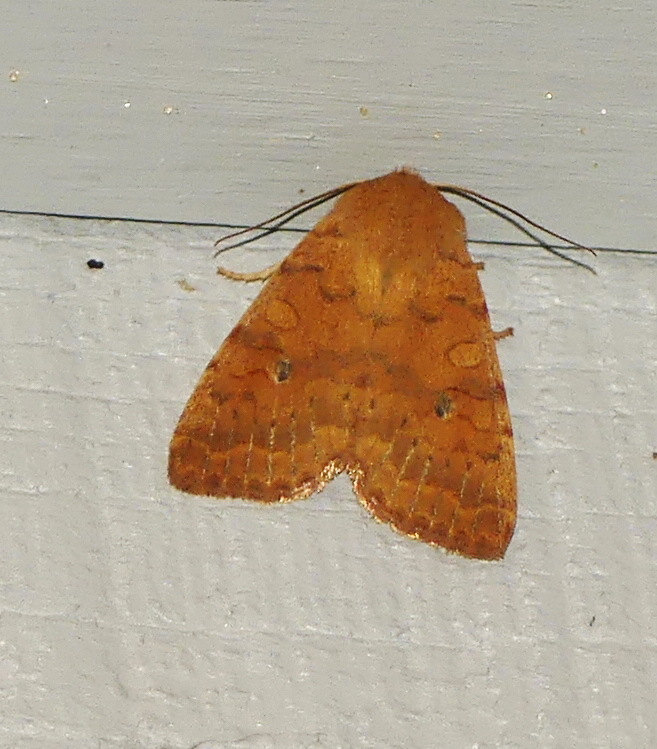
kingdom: Animalia
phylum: Arthropoda
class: Insecta
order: Lepidoptera
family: Noctuidae
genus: Agrochola
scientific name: Agrochola bicolorago
